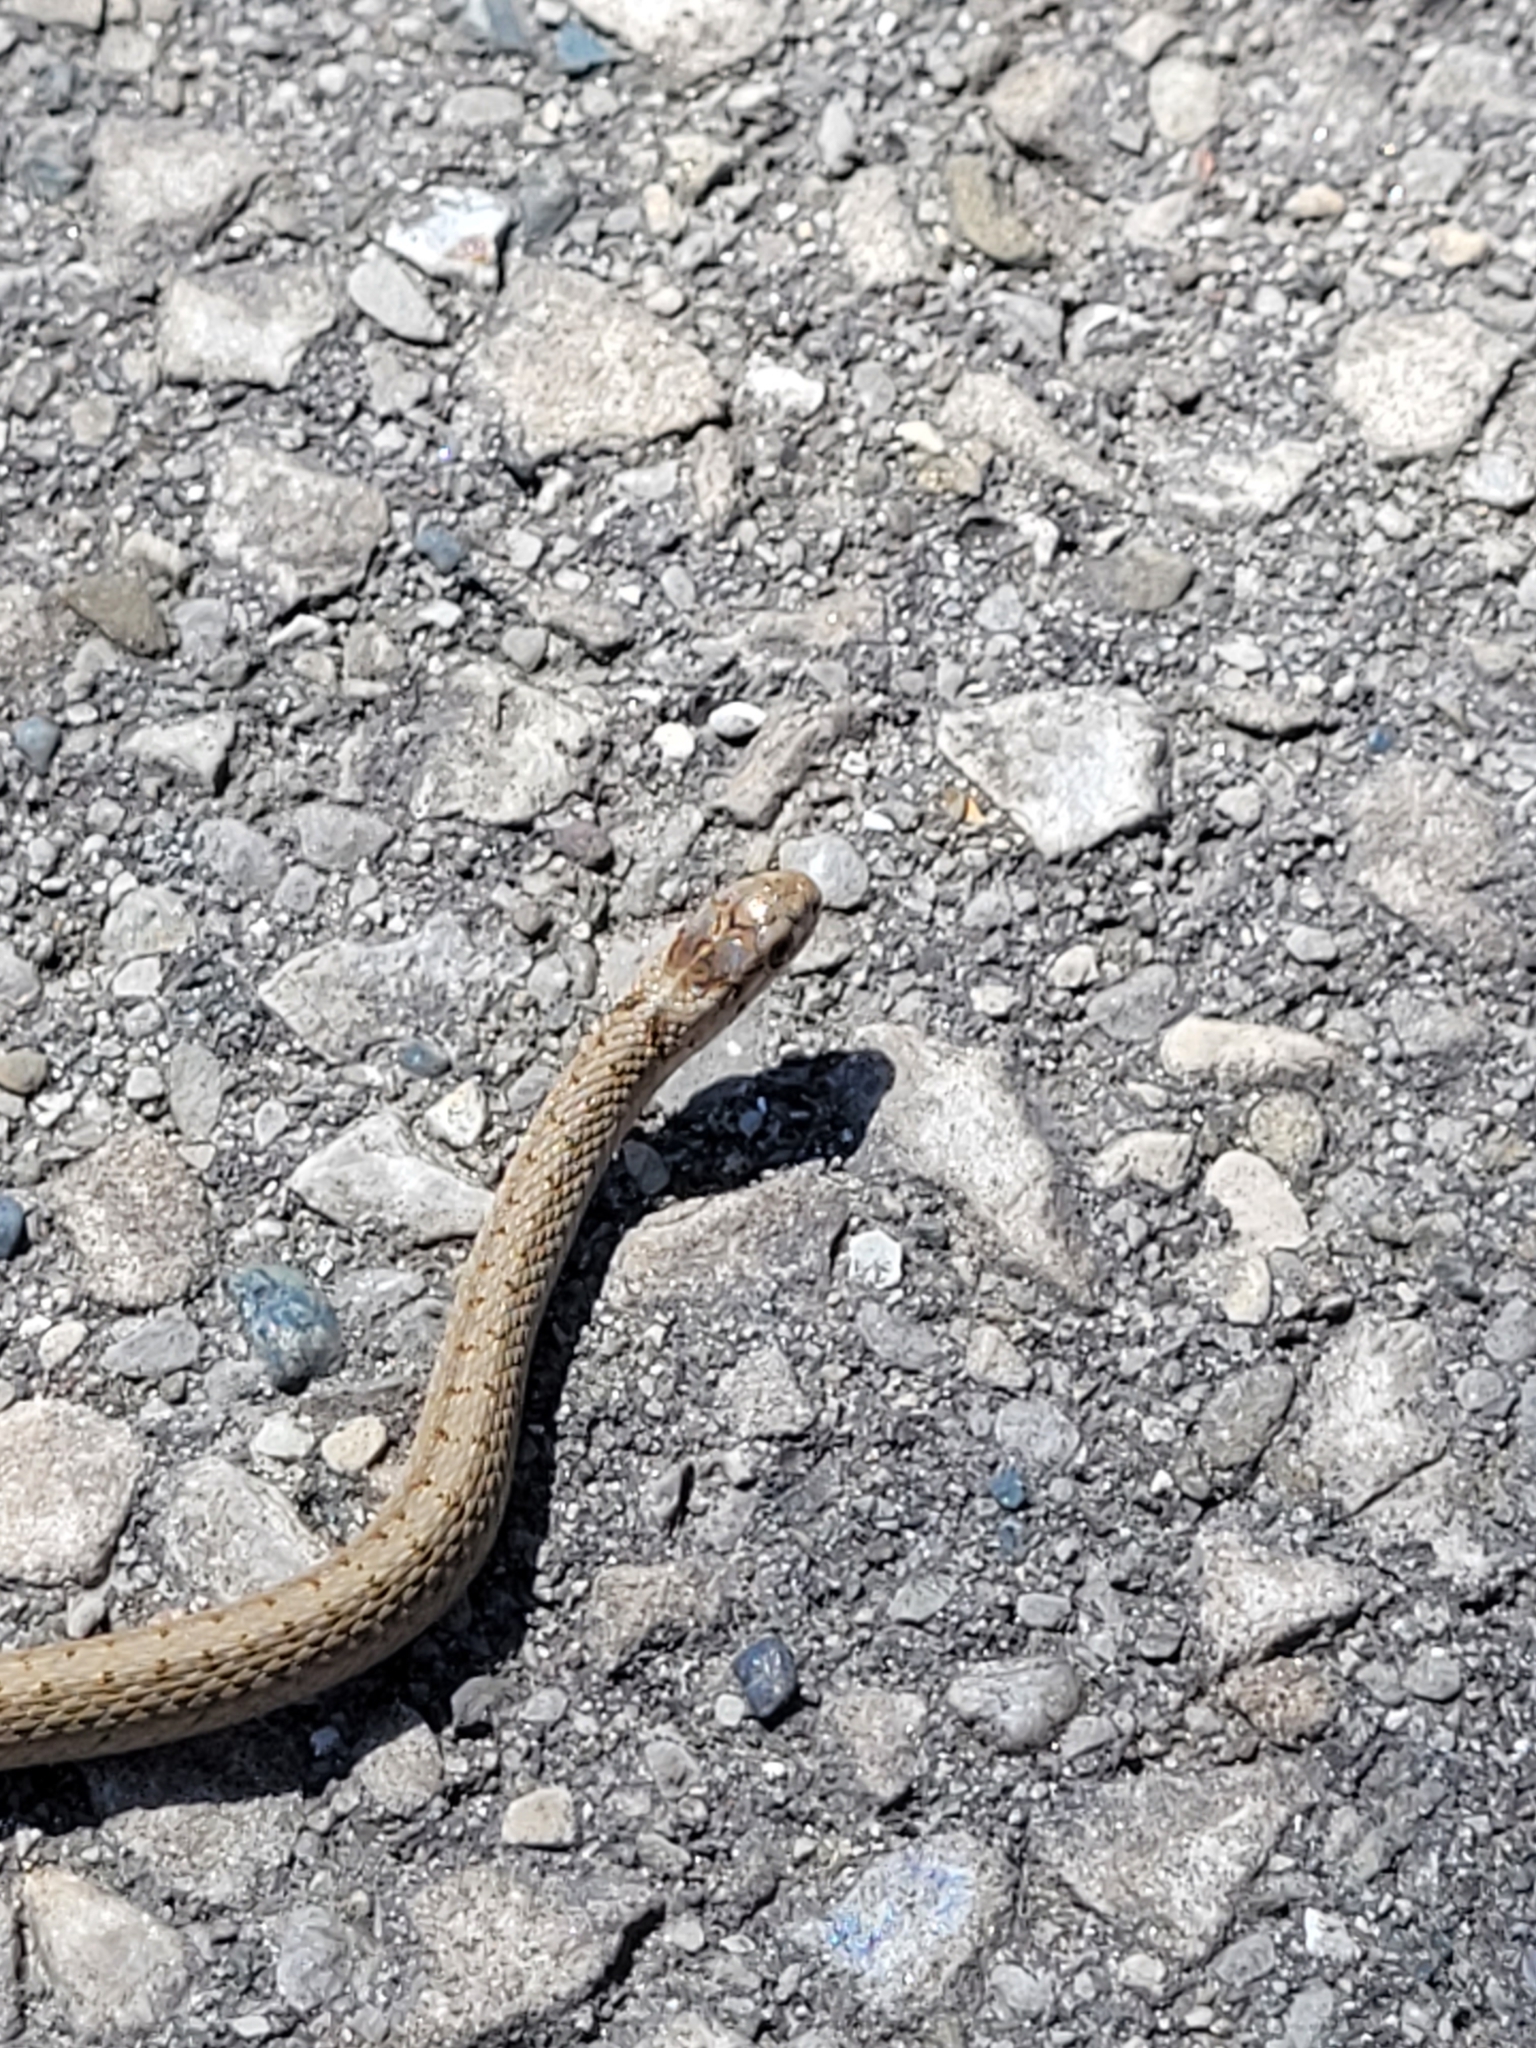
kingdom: Animalia
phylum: Chordata
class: Squamata
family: Colubridae
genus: Storeria
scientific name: Storeria dekayi
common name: (dekay’s) brown snake
